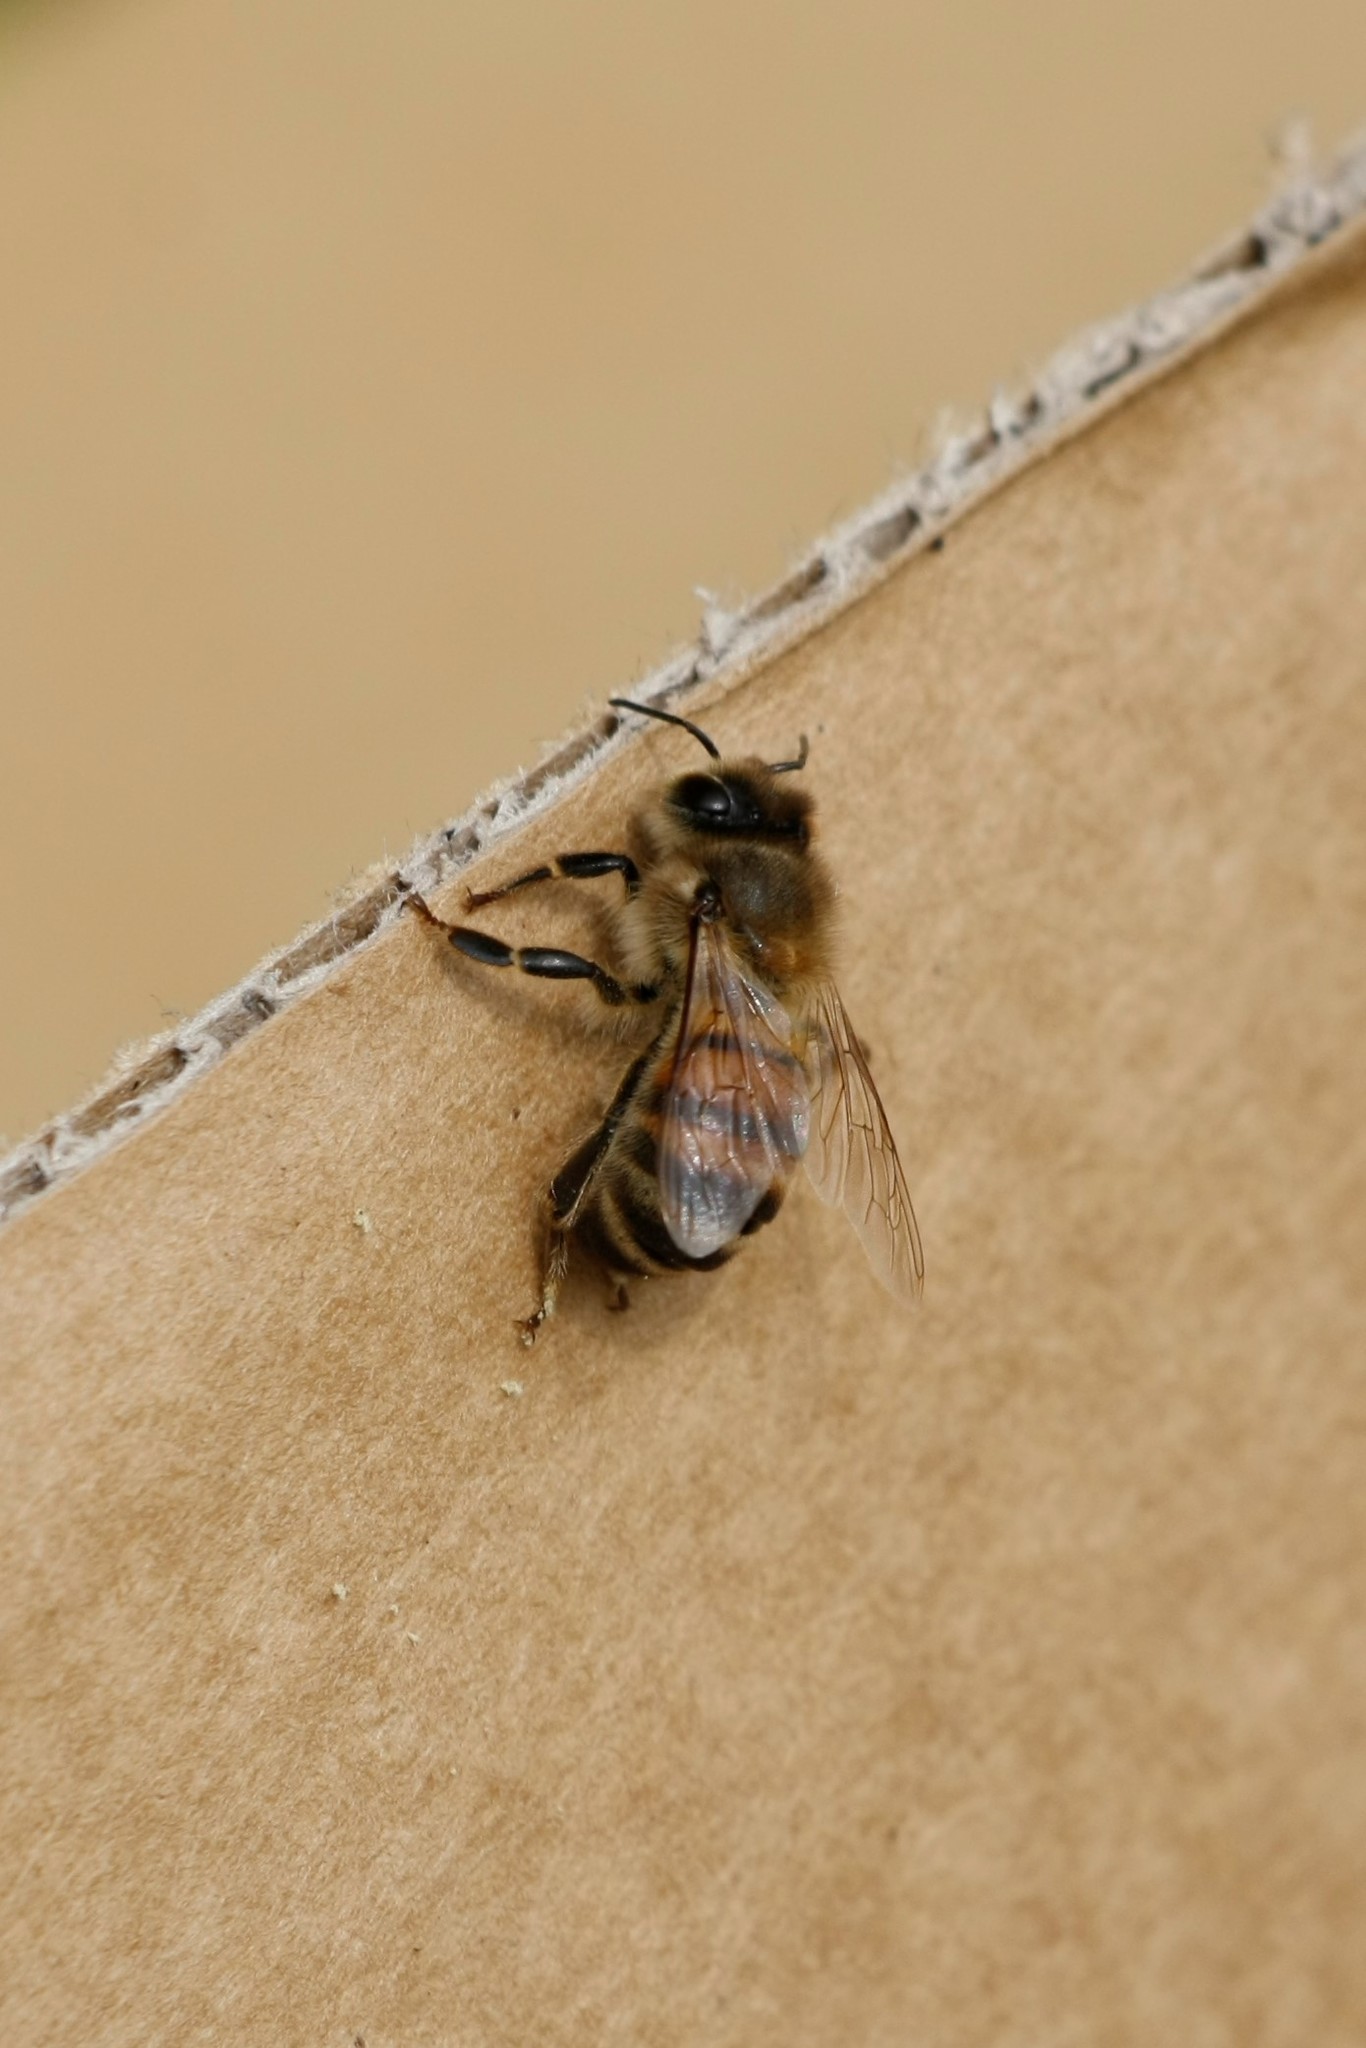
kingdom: Animalia
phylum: Arthropoda
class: Insecta
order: Hymenoptera
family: Apidae
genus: Apis
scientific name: Apis mellifera
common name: Honey bee
